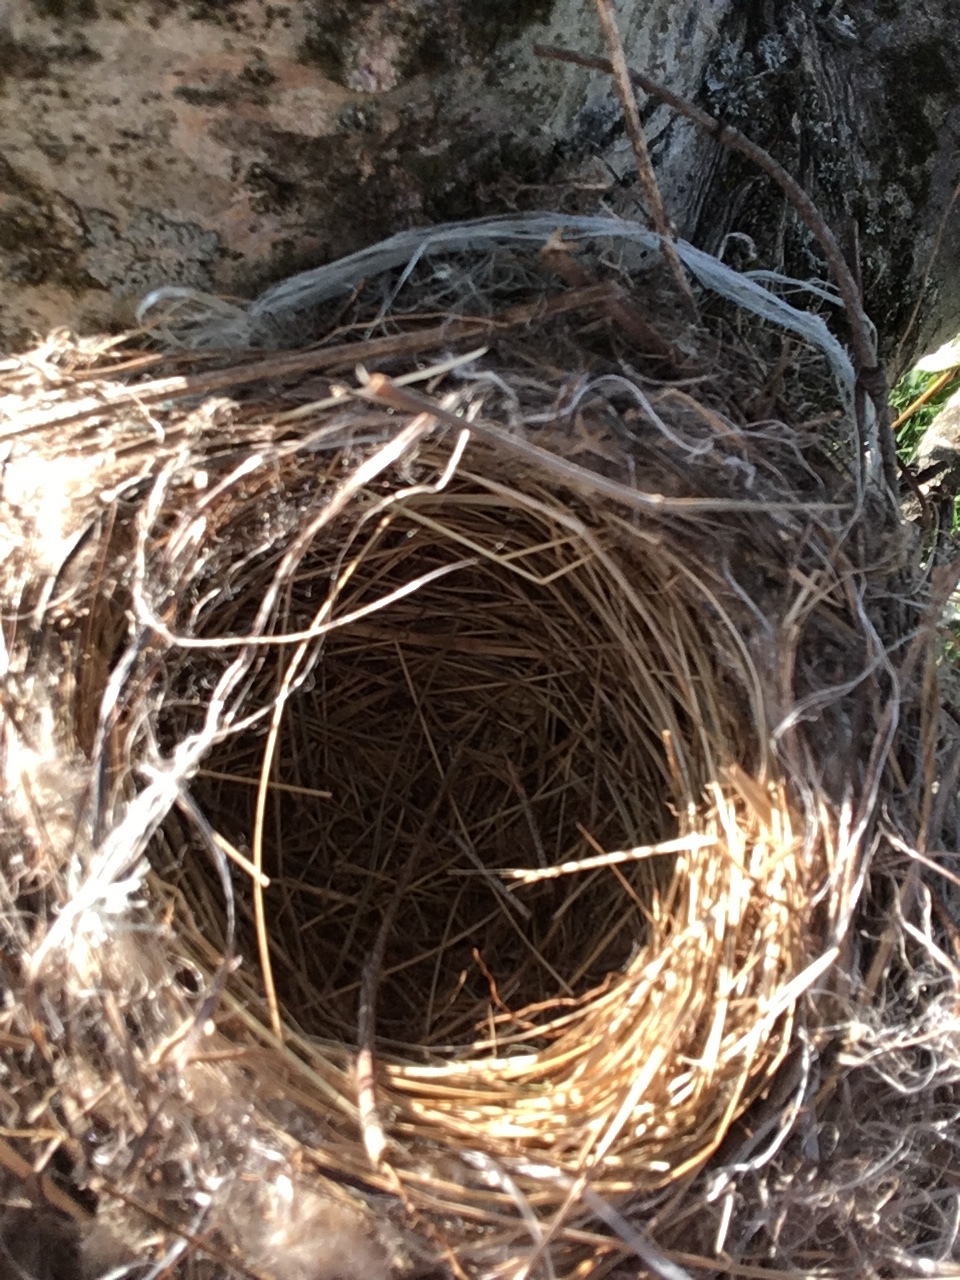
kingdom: Animalia
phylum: Chordata
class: Aves
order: Passeriformes
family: Tyrannidae
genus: Tyrannus
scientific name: Tyrannus tyrannus
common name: Eastern kingbird
